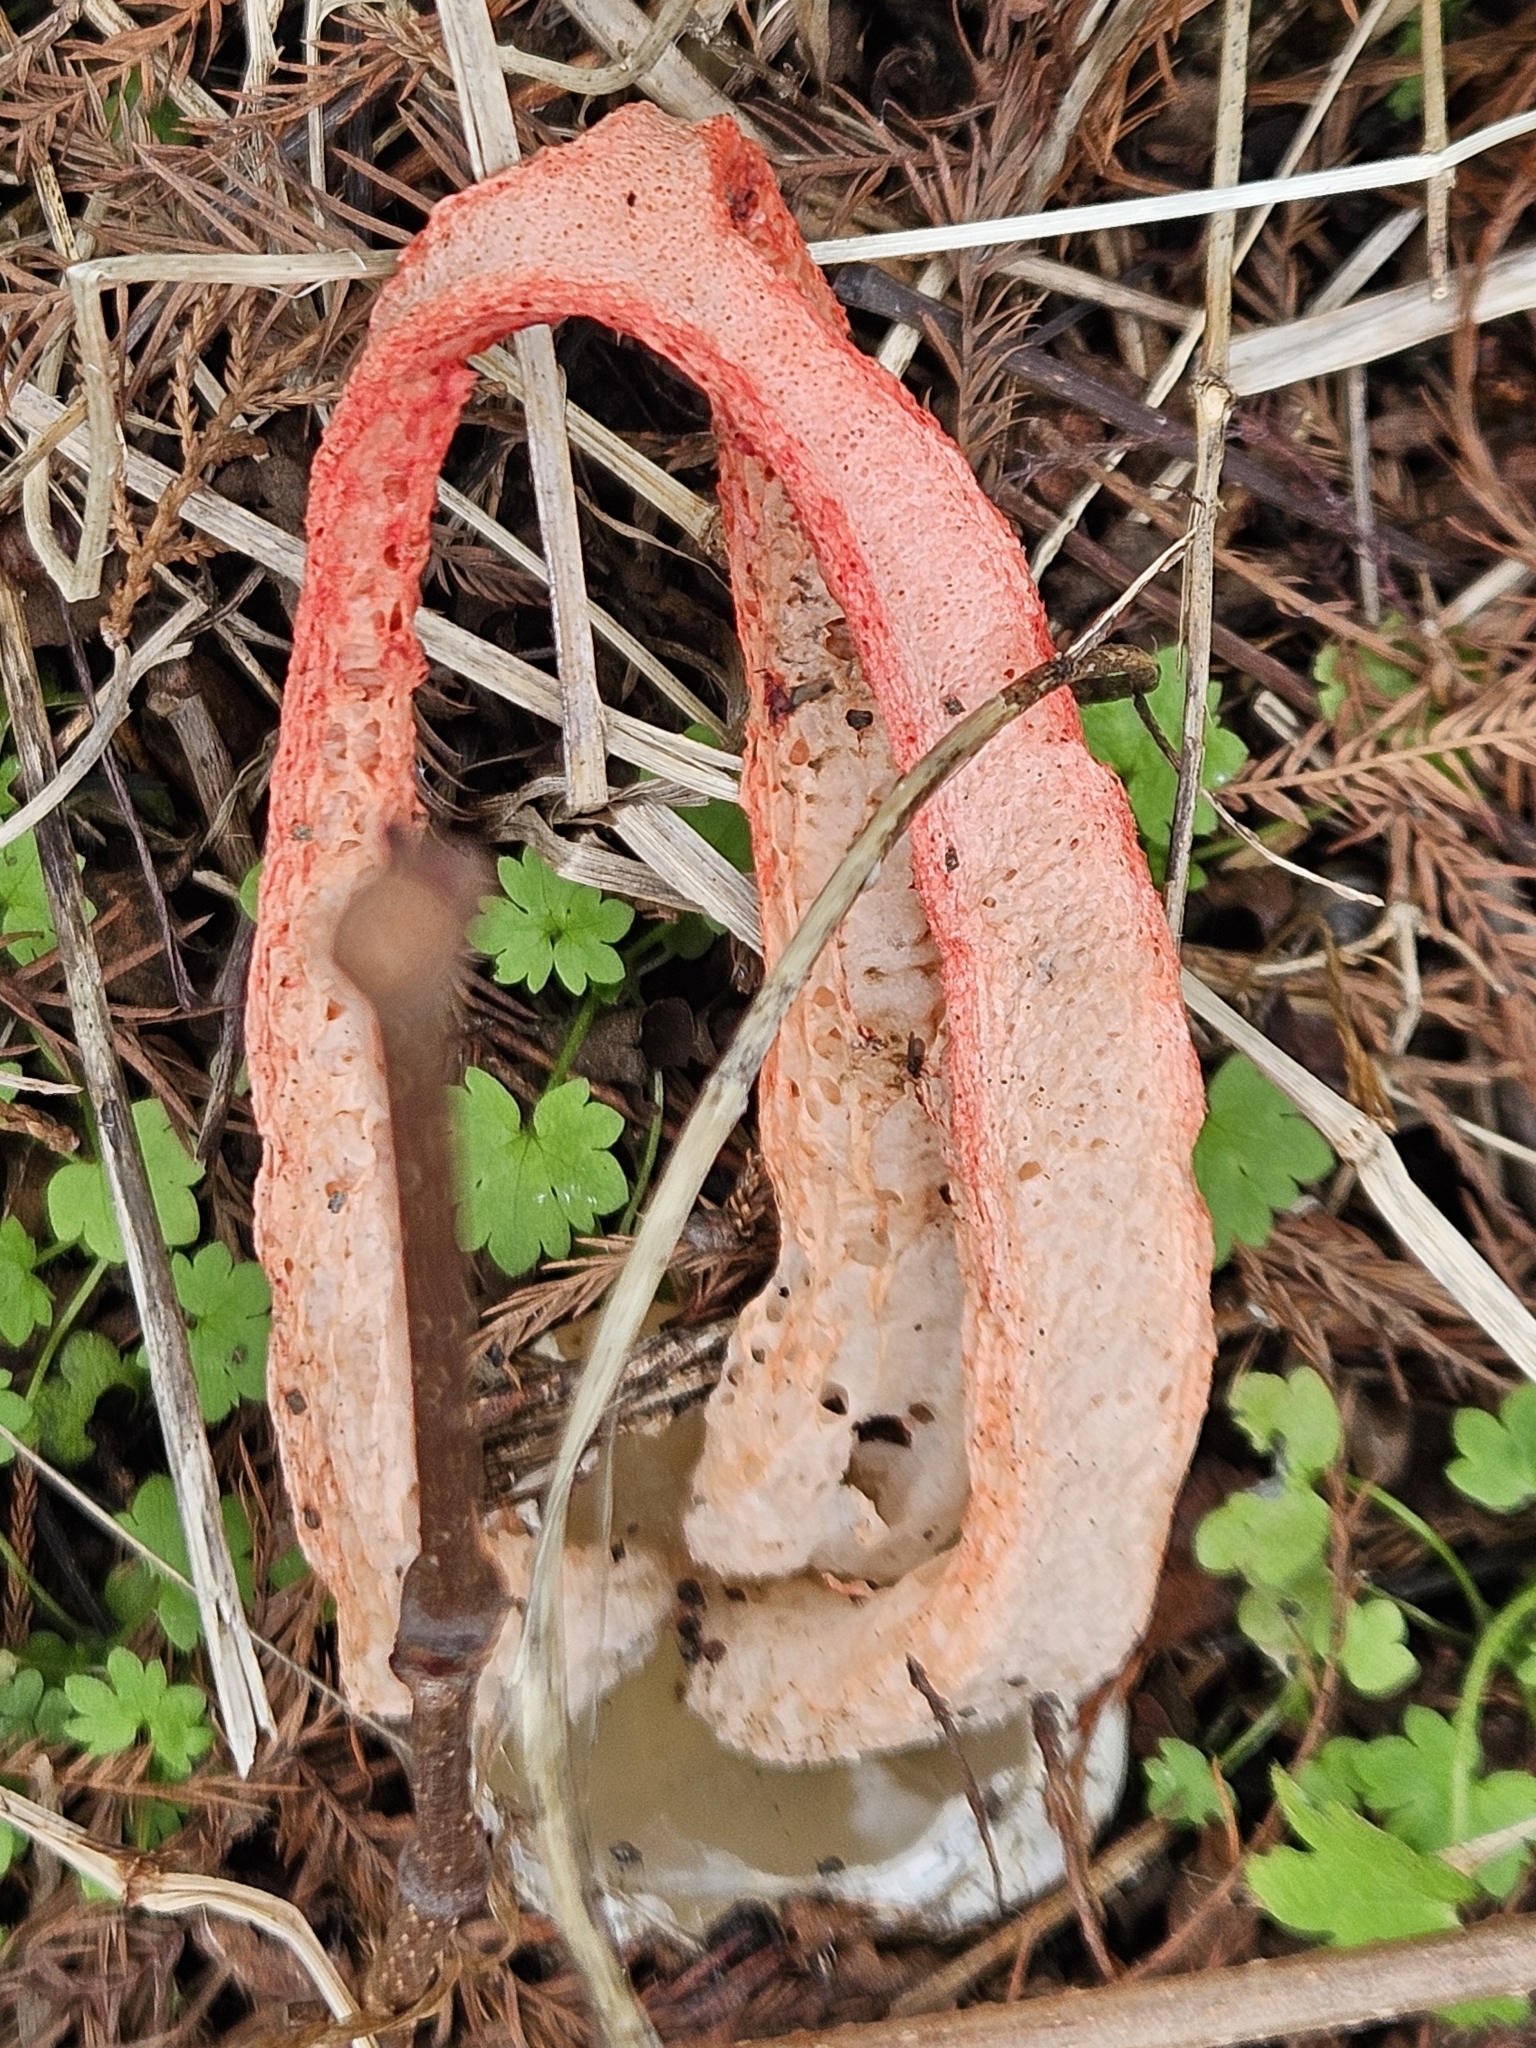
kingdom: Fungi
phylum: Basidiomycota
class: Agaricomycetes
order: Phallales
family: Phallaceae
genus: Clathrus
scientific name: Clathrus columnatus
